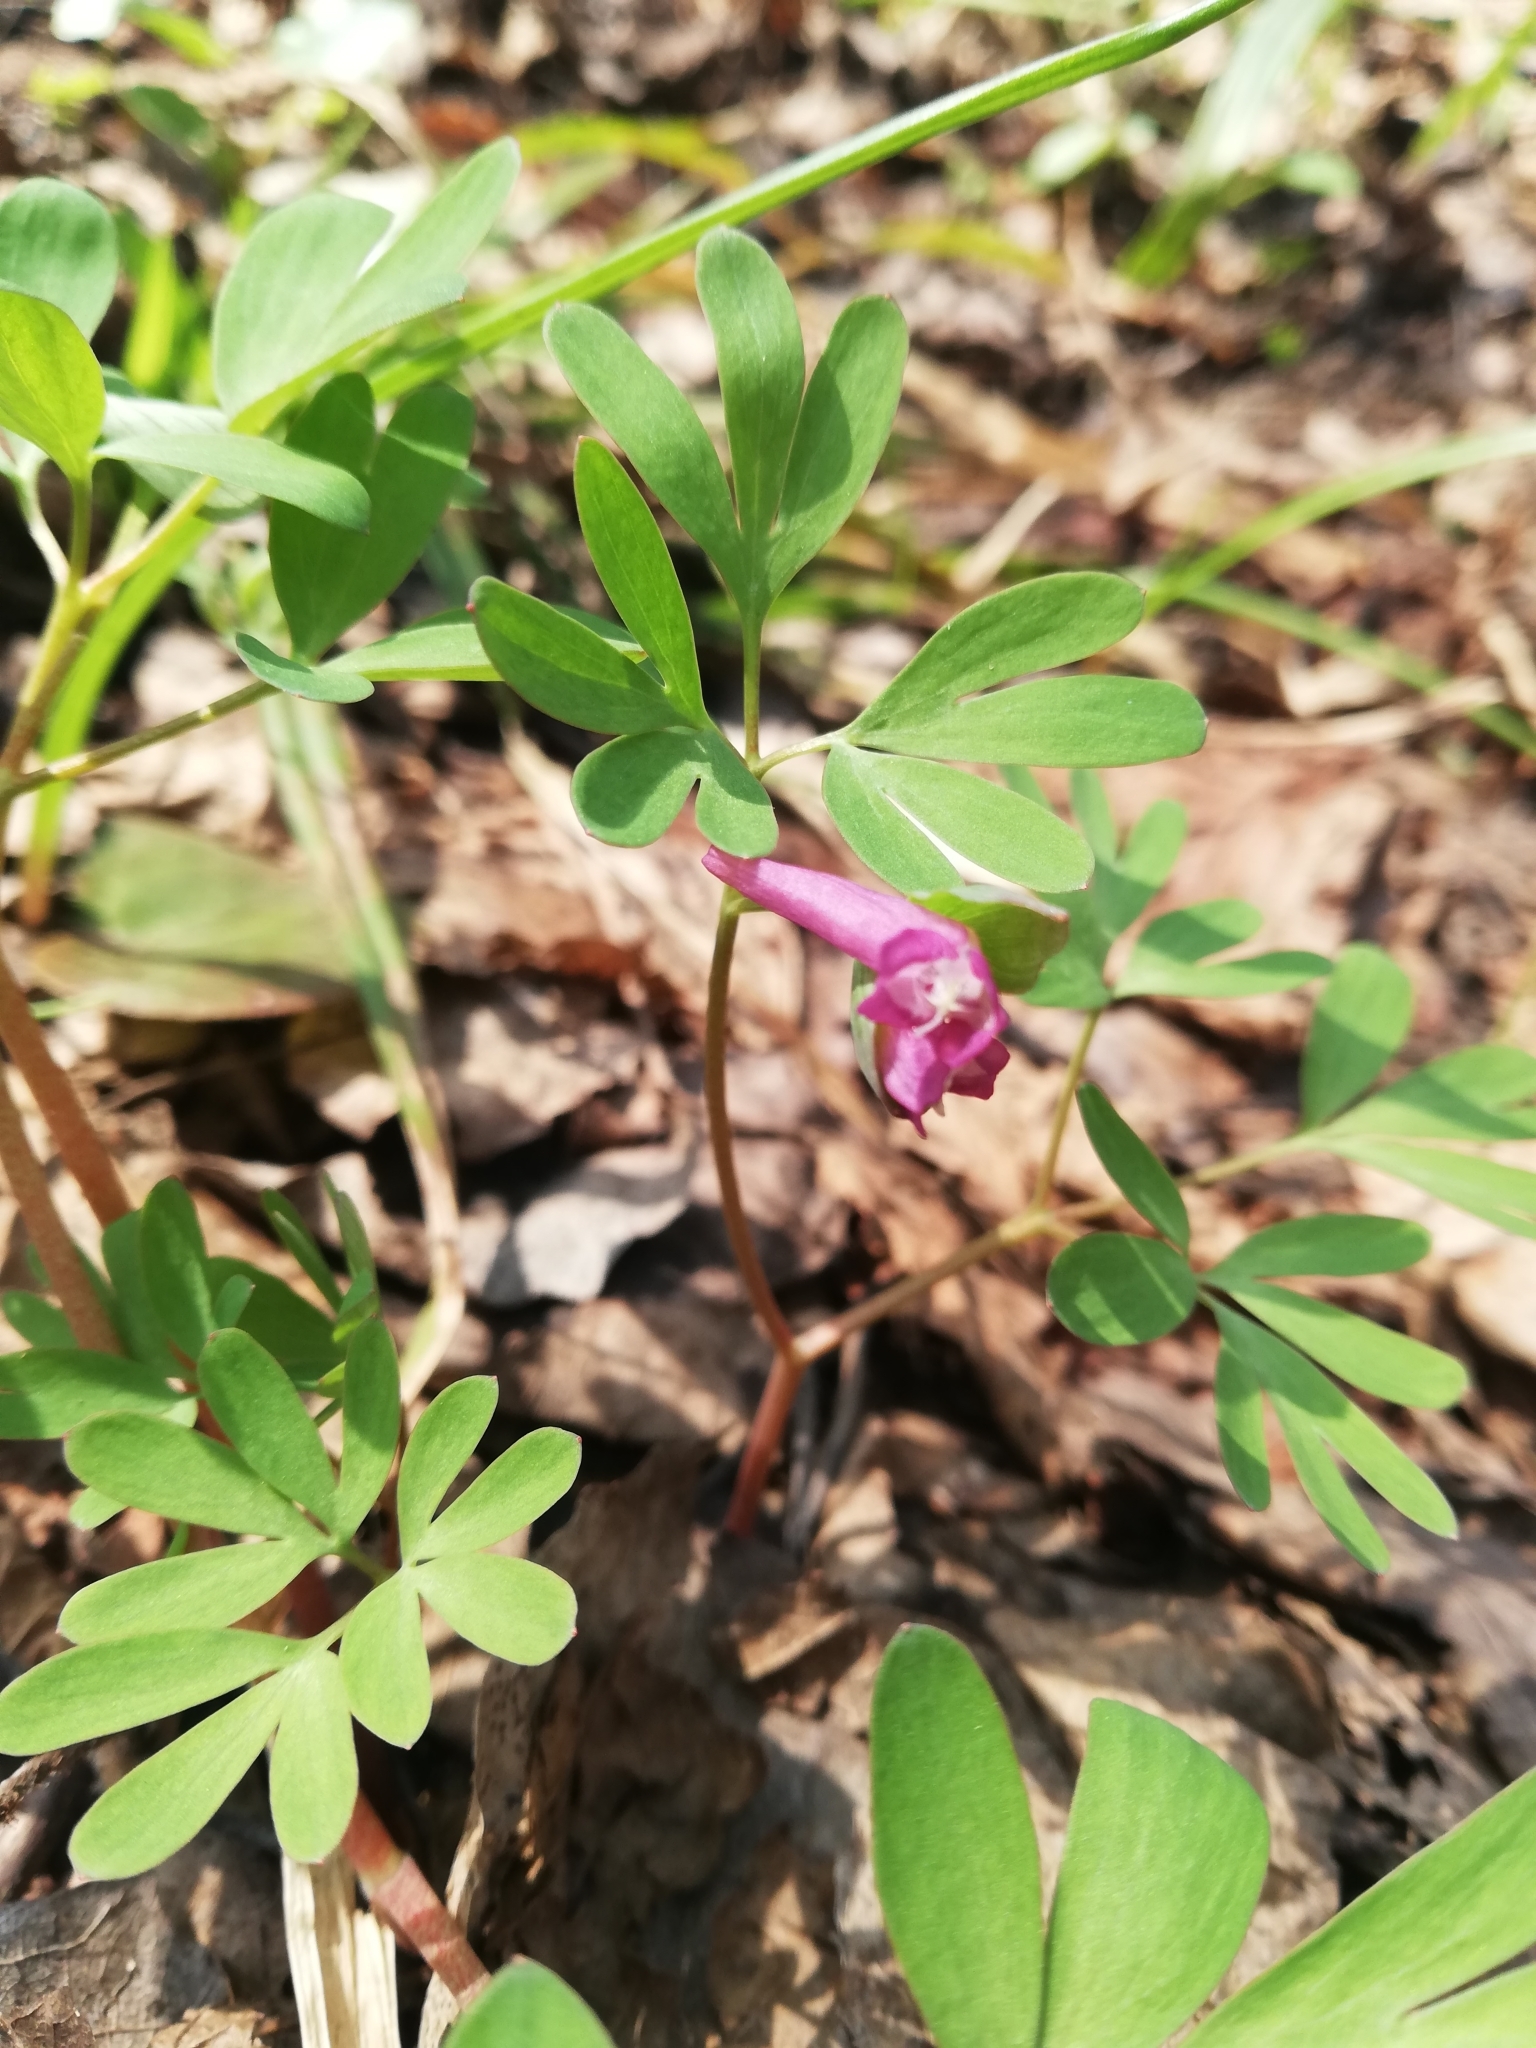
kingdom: Plantae
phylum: Tracheophyta
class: Magnoliopsida
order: Ranunculales
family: Papaveraceae
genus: Corydalis
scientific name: Corydalis intermedia
